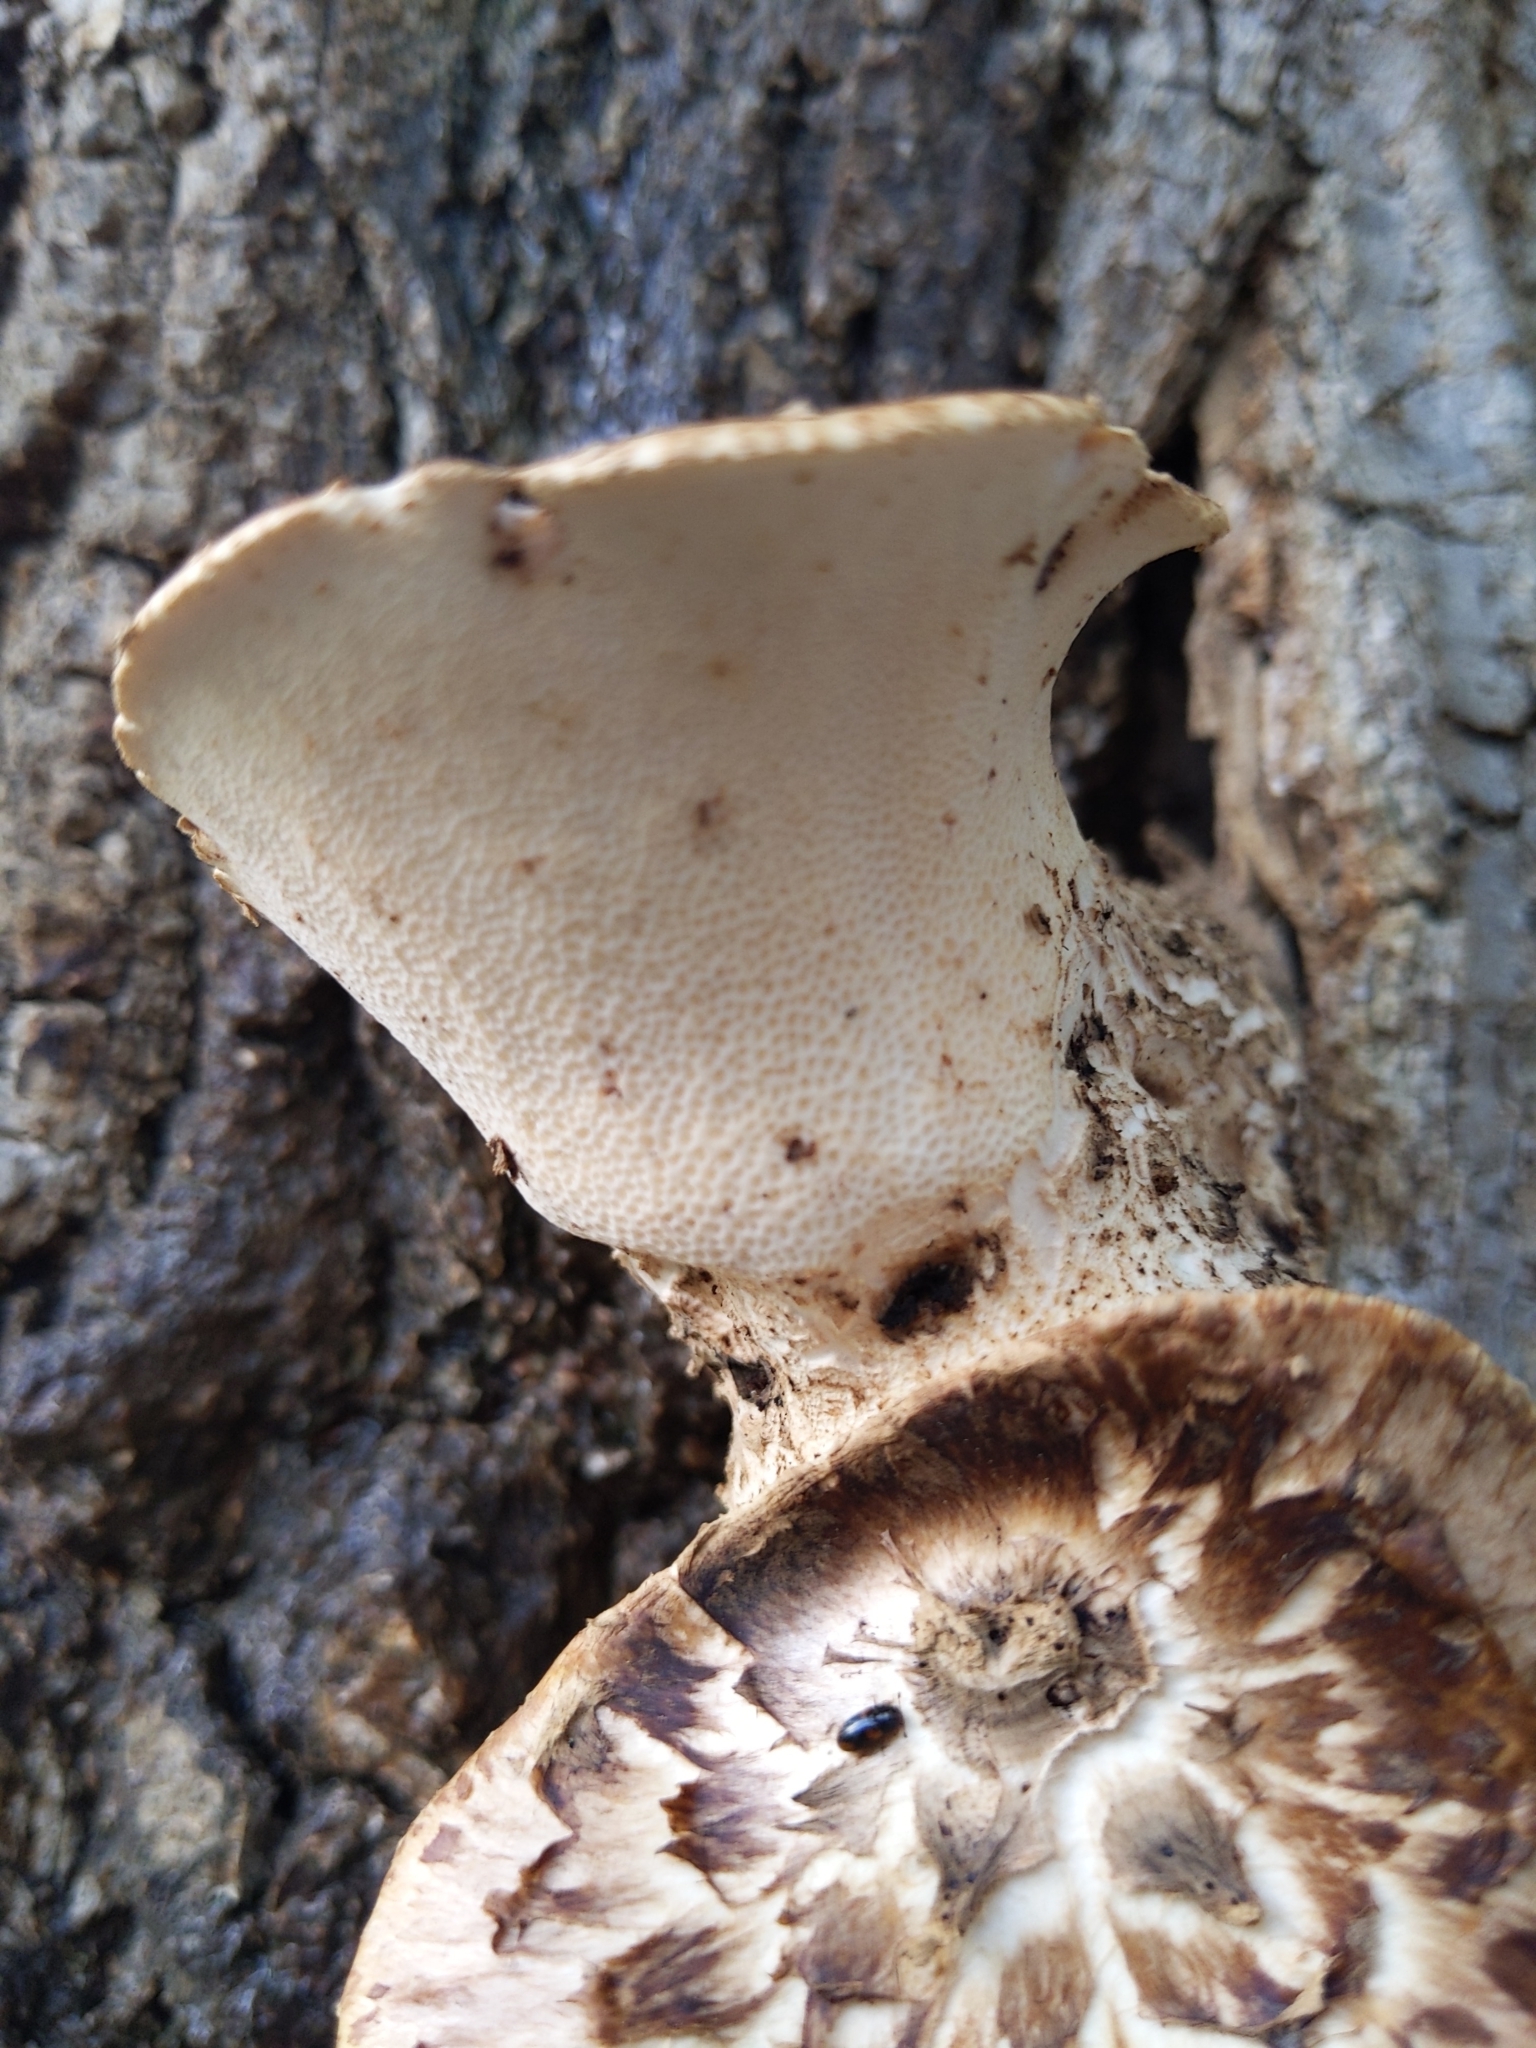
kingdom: Fungi
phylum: Basidiomycota
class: Agaricomycetes
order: Polyporales
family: Polyporaceae
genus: Cerioporus
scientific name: Cerioporus squamosus
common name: Dryad's saddle
